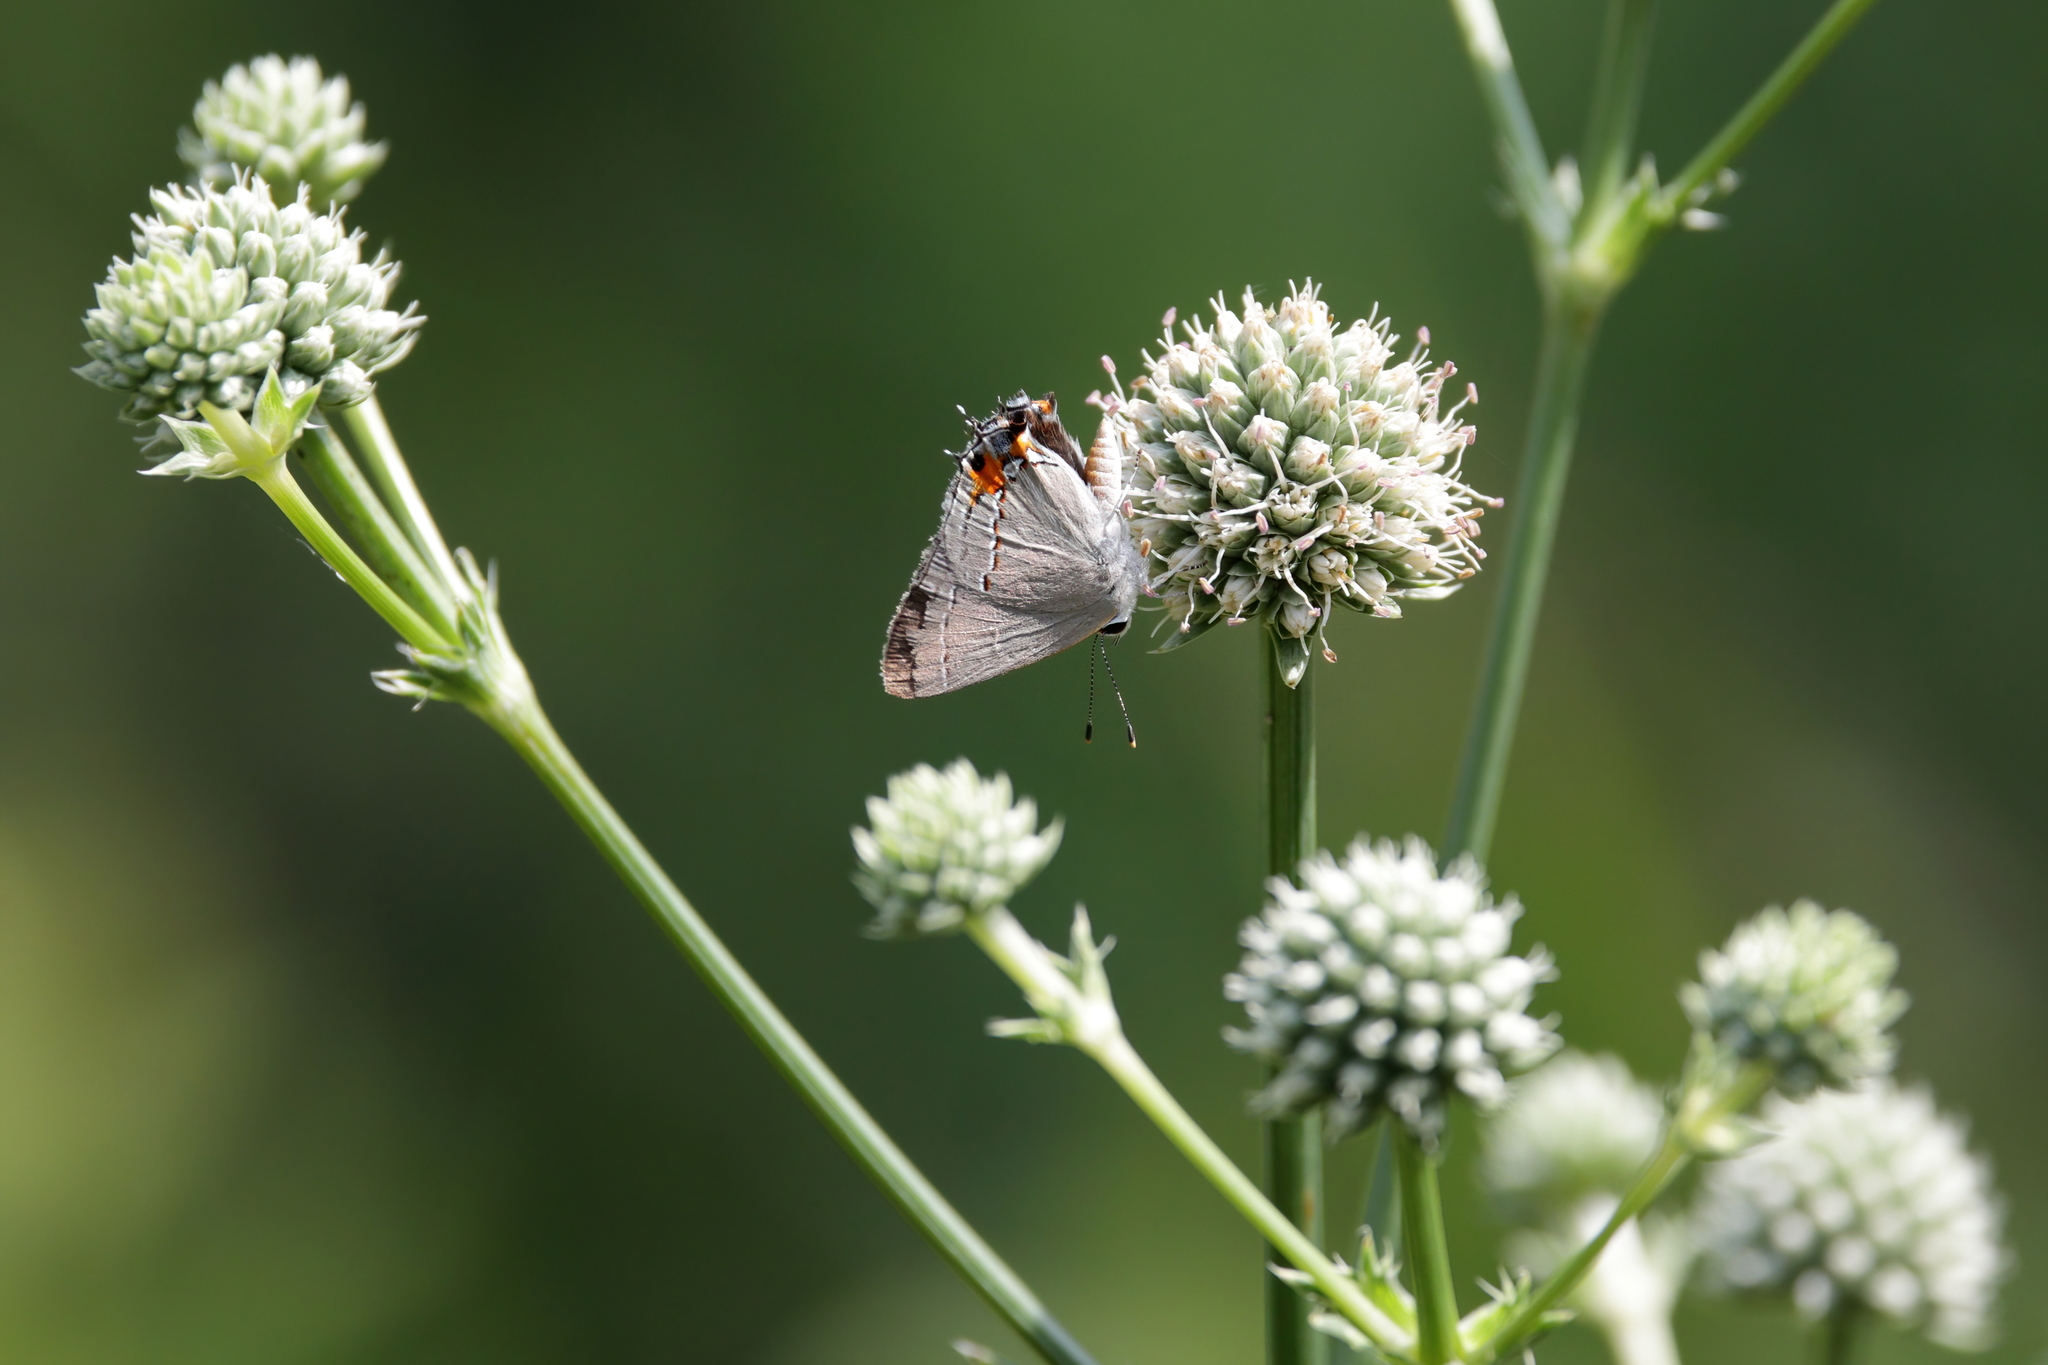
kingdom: Animalia
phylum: Arthropoda
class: Insecta
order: Lepidoptera
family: Lycaenidae
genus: Strymon
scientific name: Strymon melinus
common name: Gray hairstreak
